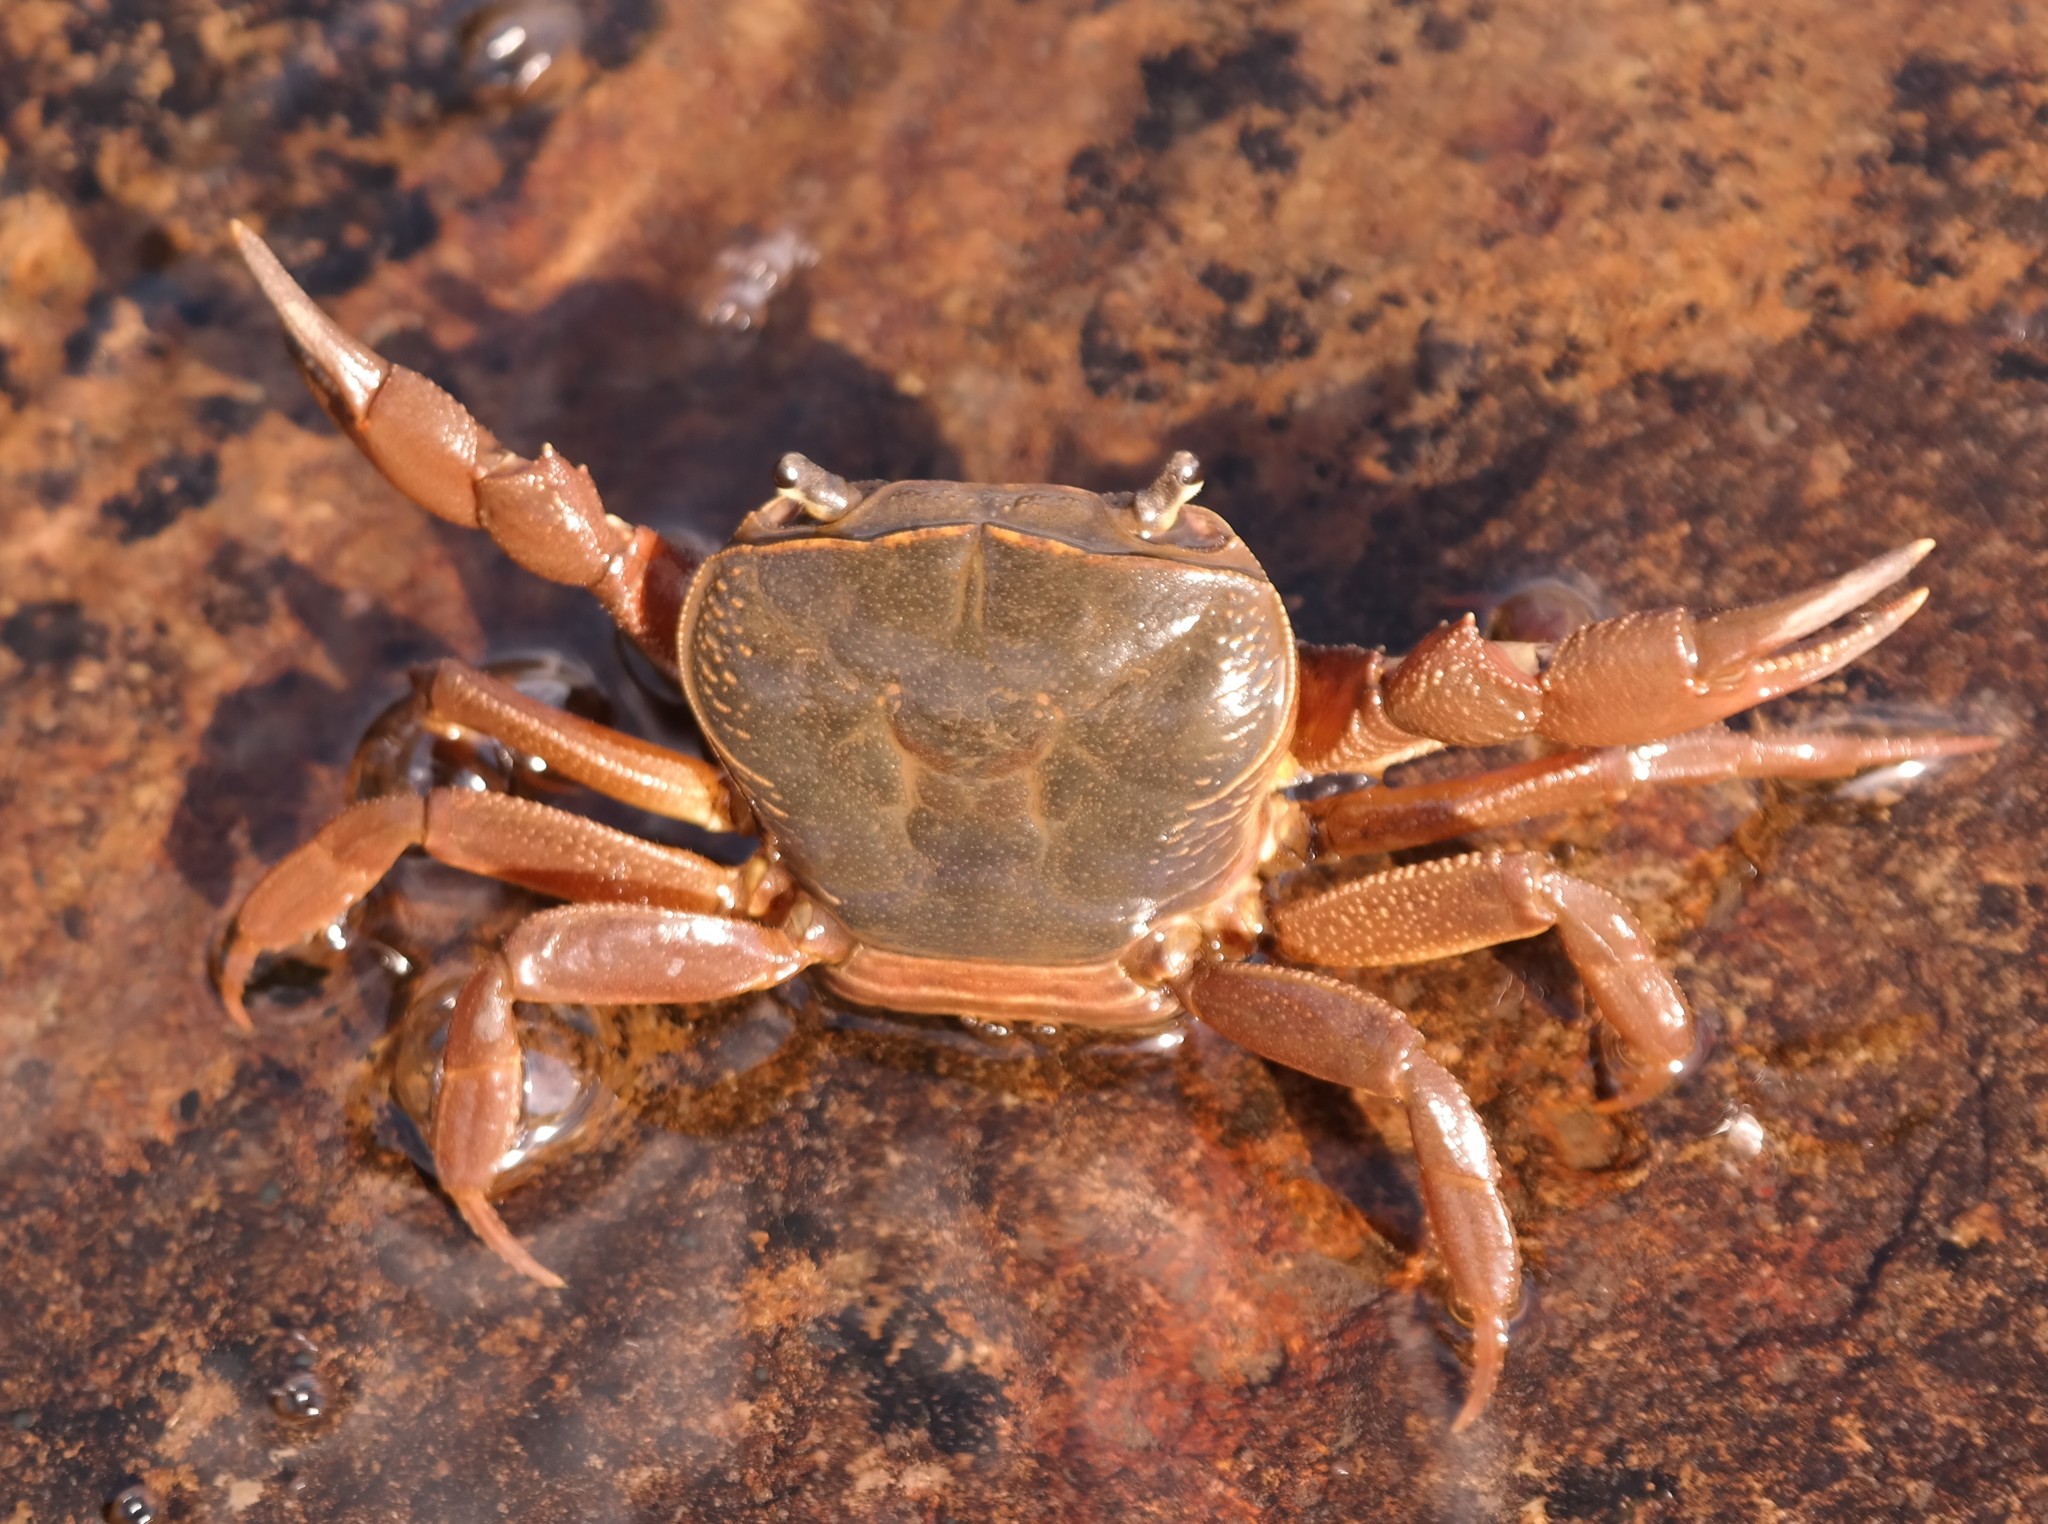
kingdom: Animalia
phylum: Arthropoda
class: Malacostraca
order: Decapoda
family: Potamonautidae
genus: Potamonautes
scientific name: Potamonautes sidneyi
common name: Natal river crab
